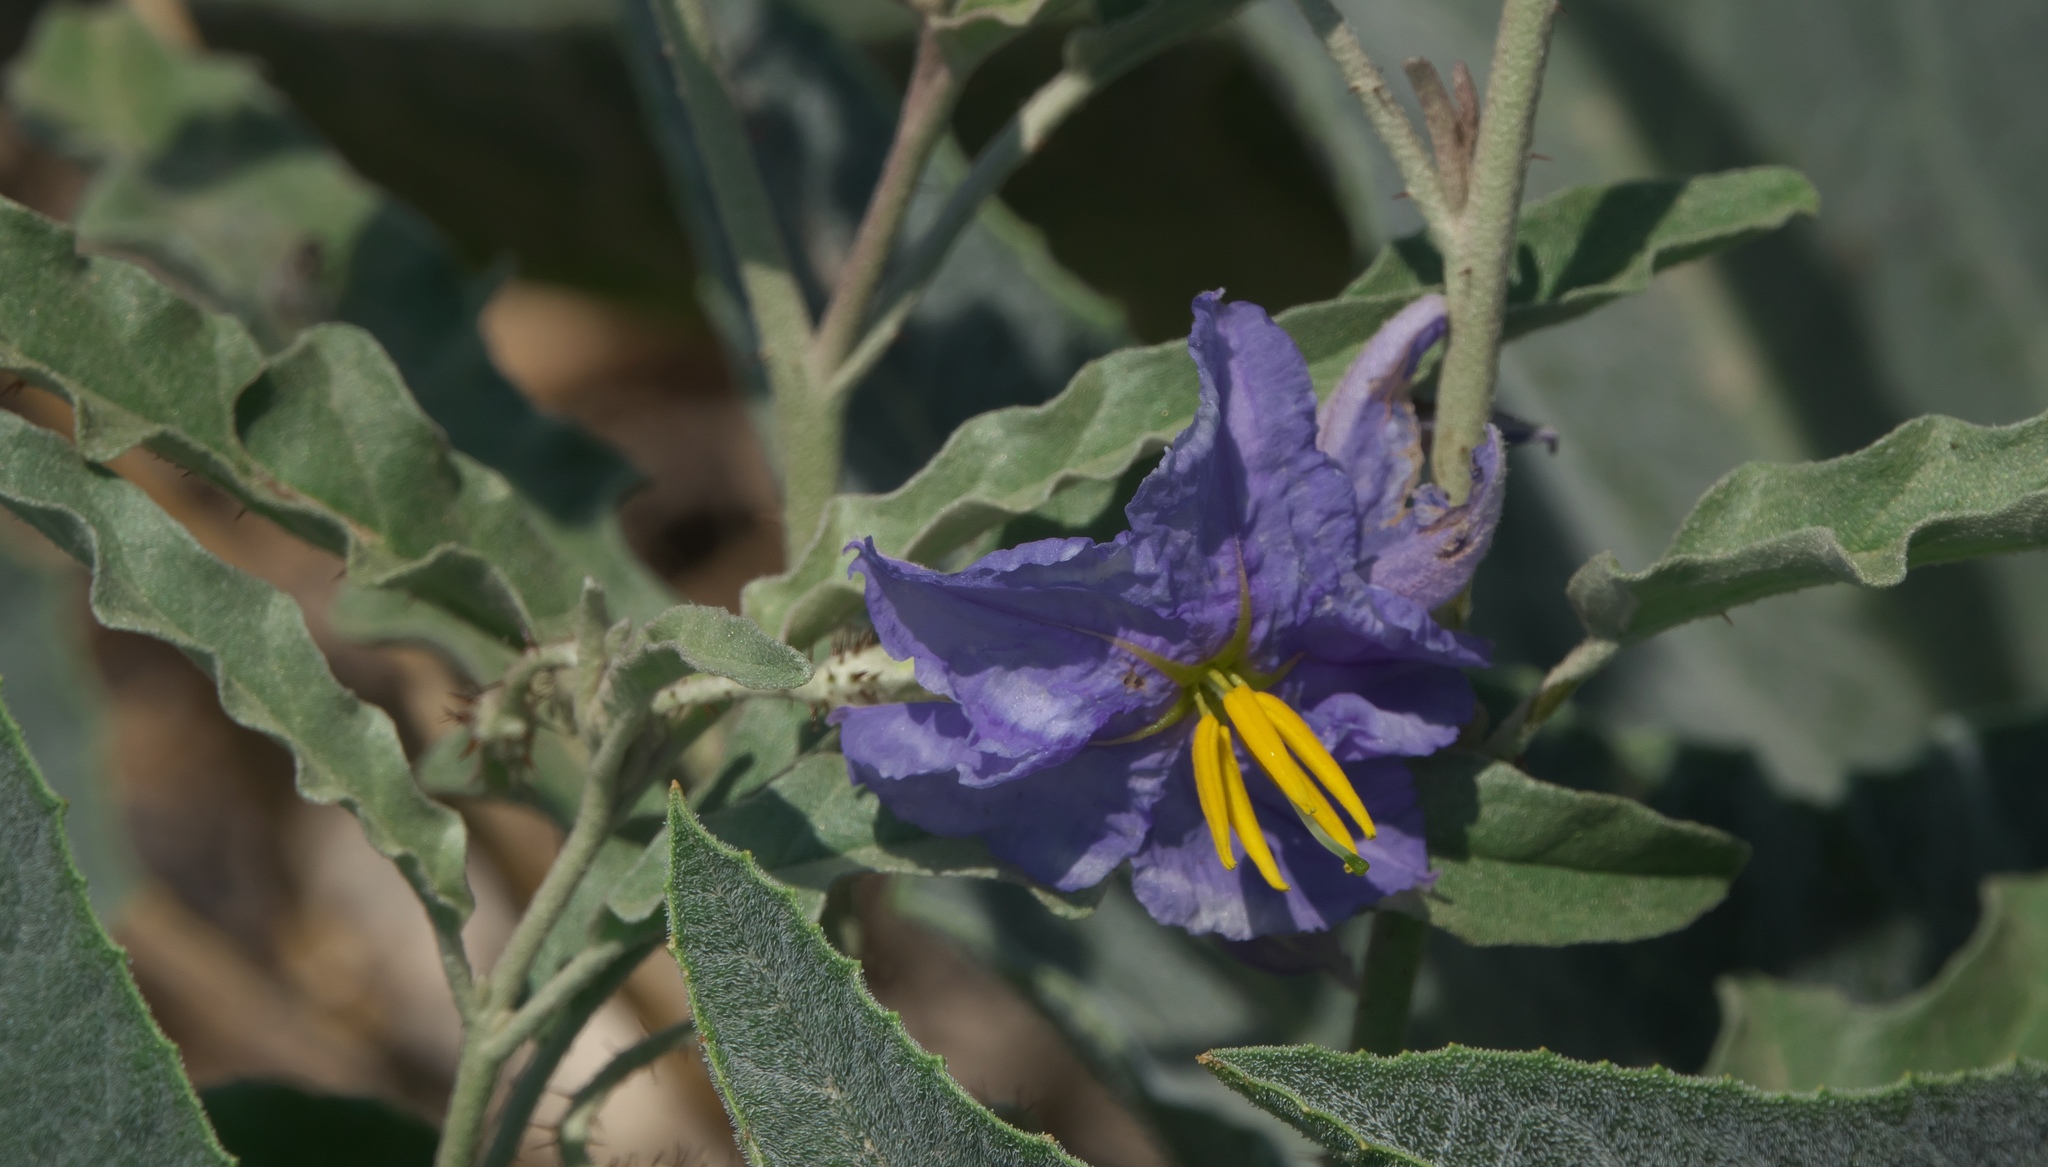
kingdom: Plantae
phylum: Tracheophyta
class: Magnoliopsida
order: Solanales
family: Solanaceae
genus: Solanum
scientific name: Solanum elaeagnifolium
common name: Silverleaf nightshade
